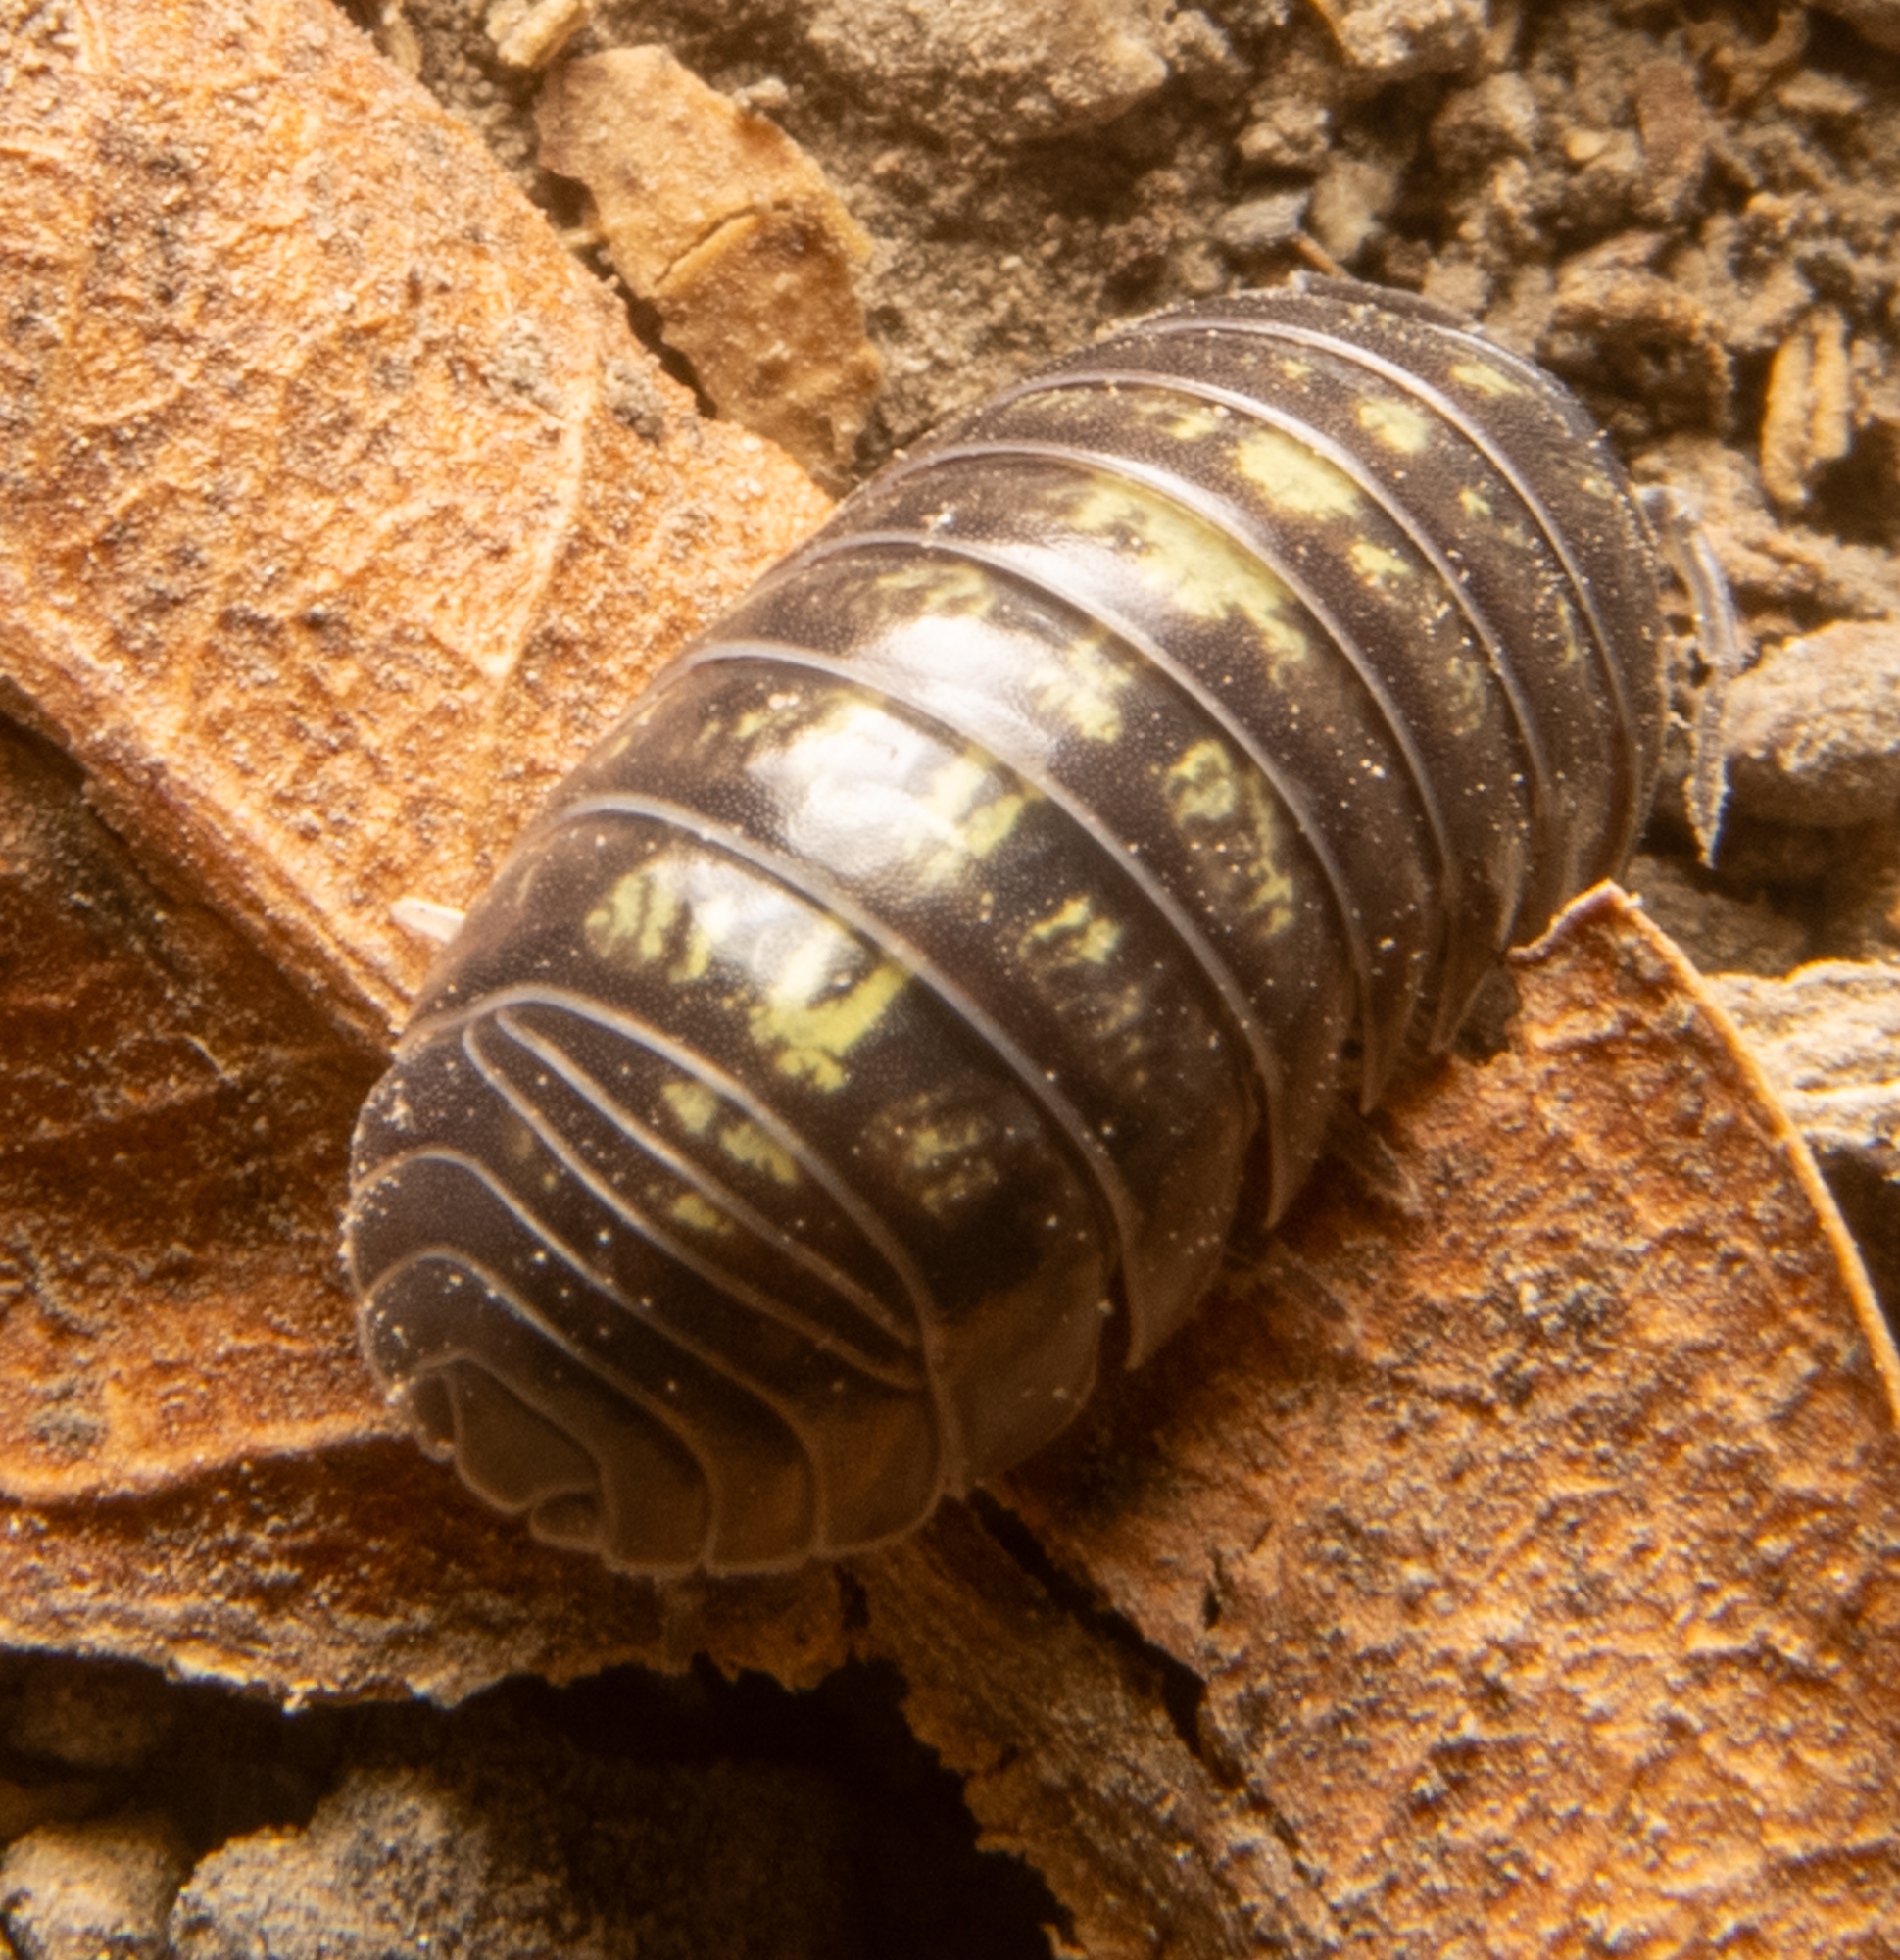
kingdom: Animalia
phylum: Arthropoda
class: Malacostraca
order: Isopoda
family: Armadillidiidae
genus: Armadillidium
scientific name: Armadillidium vulgare
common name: Common pill woodlouse
